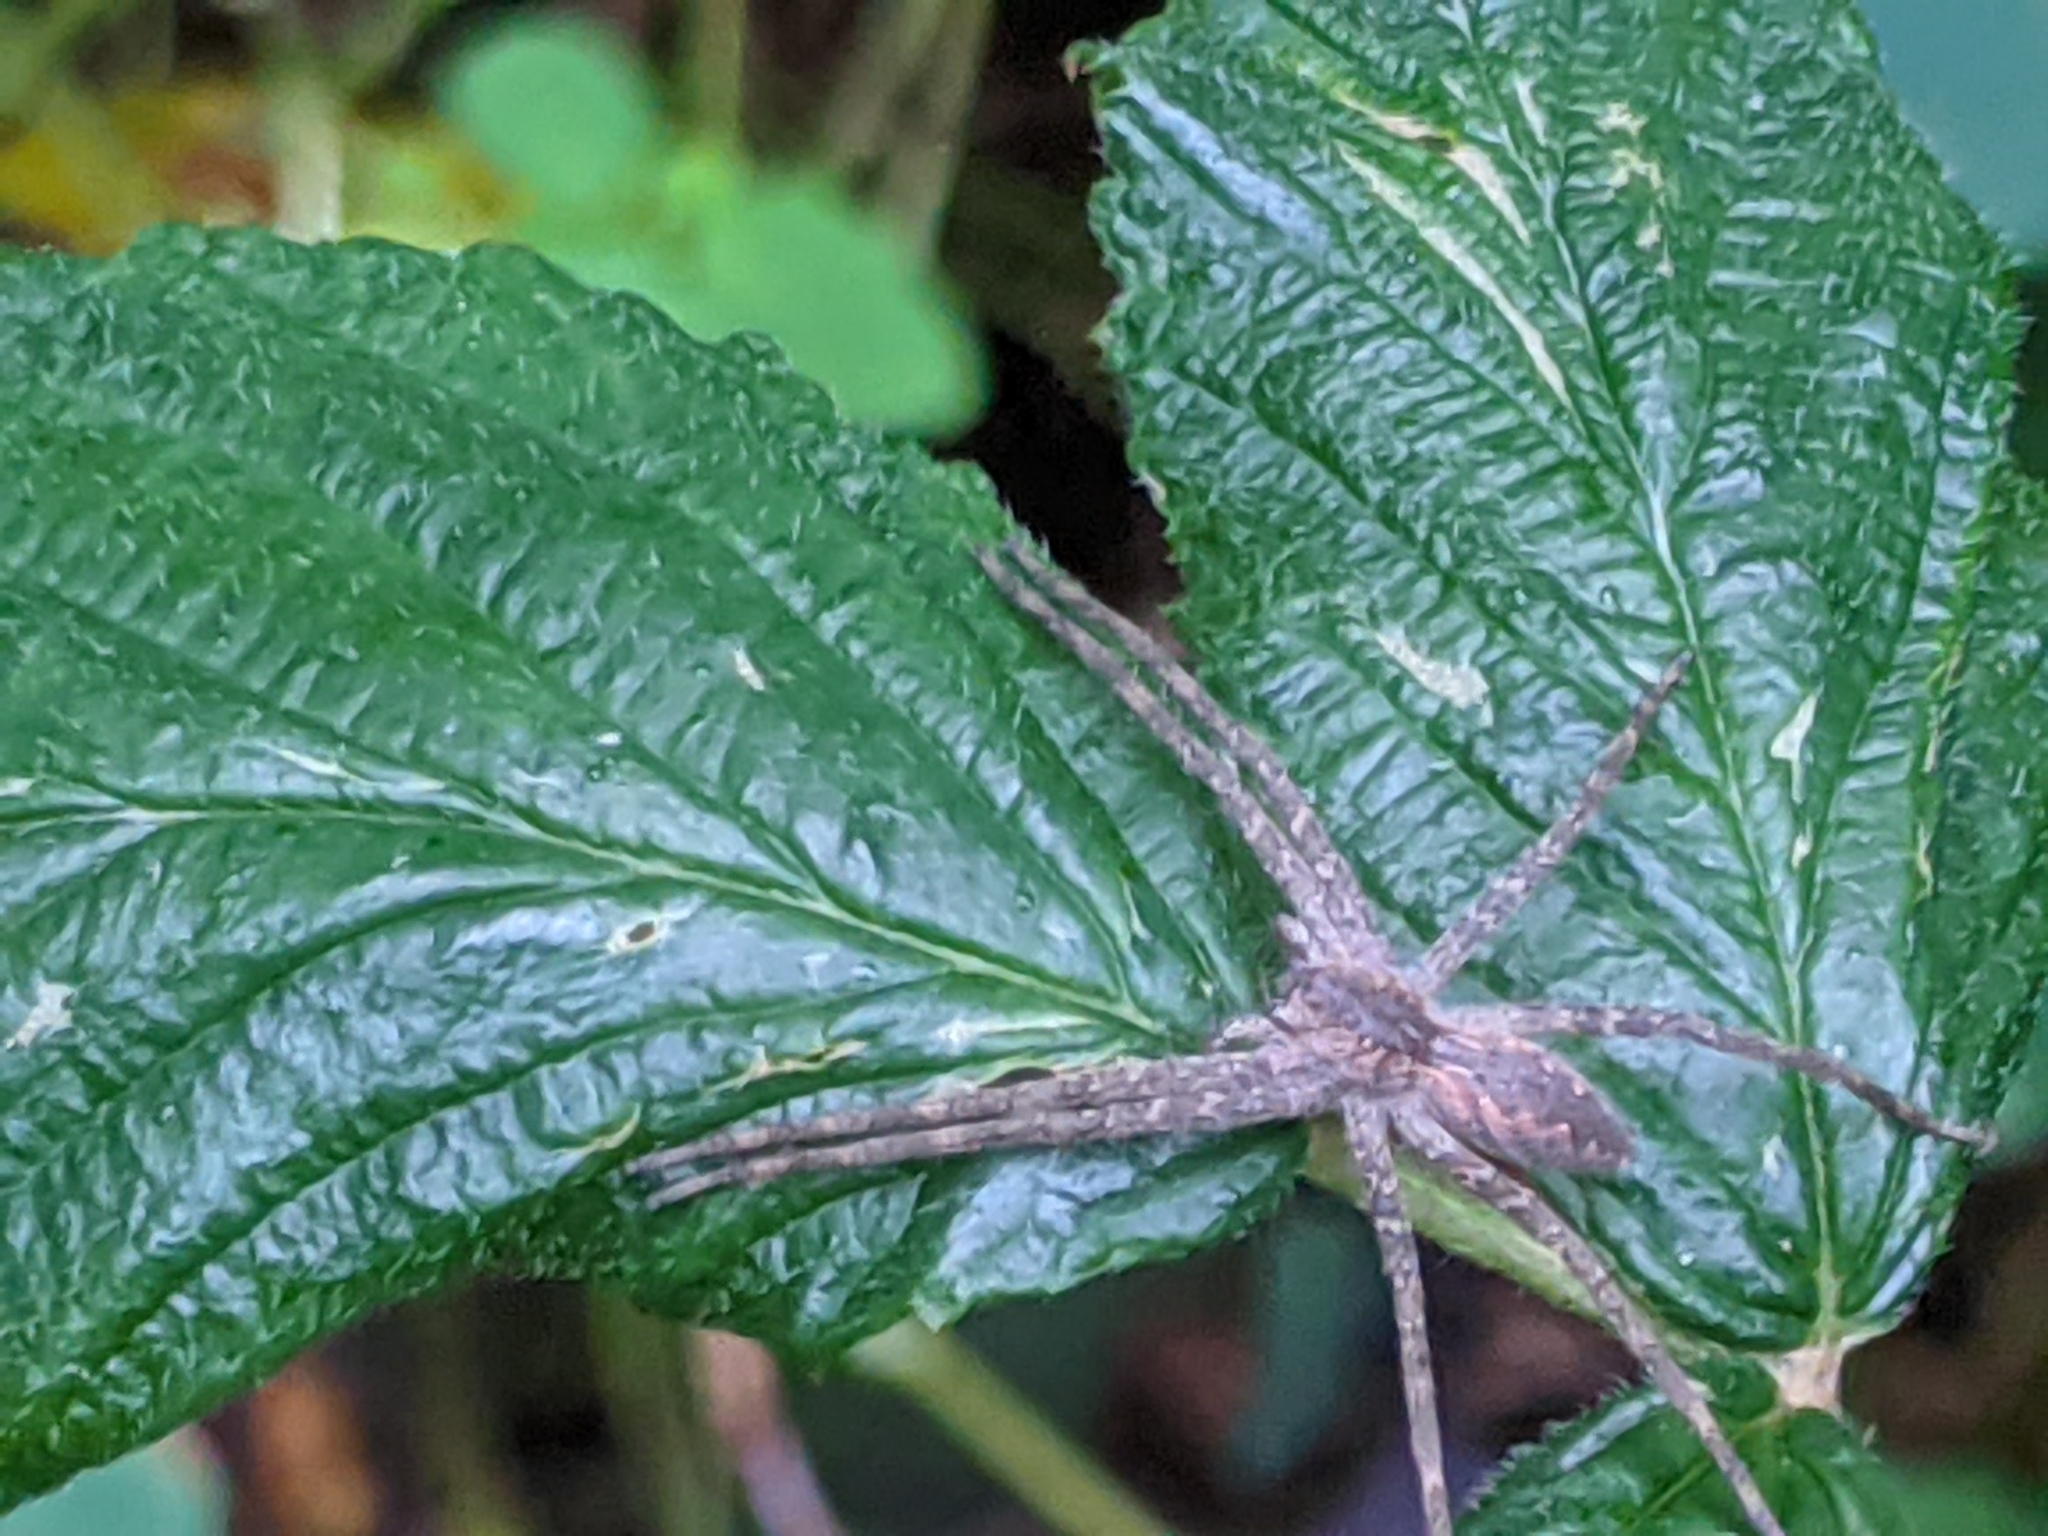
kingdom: Animalia
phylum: Arthropoda
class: Arachnida
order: Araneae
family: Pisauridae
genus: Pisaurina
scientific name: Pisaurina mira
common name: American nursery web spider
